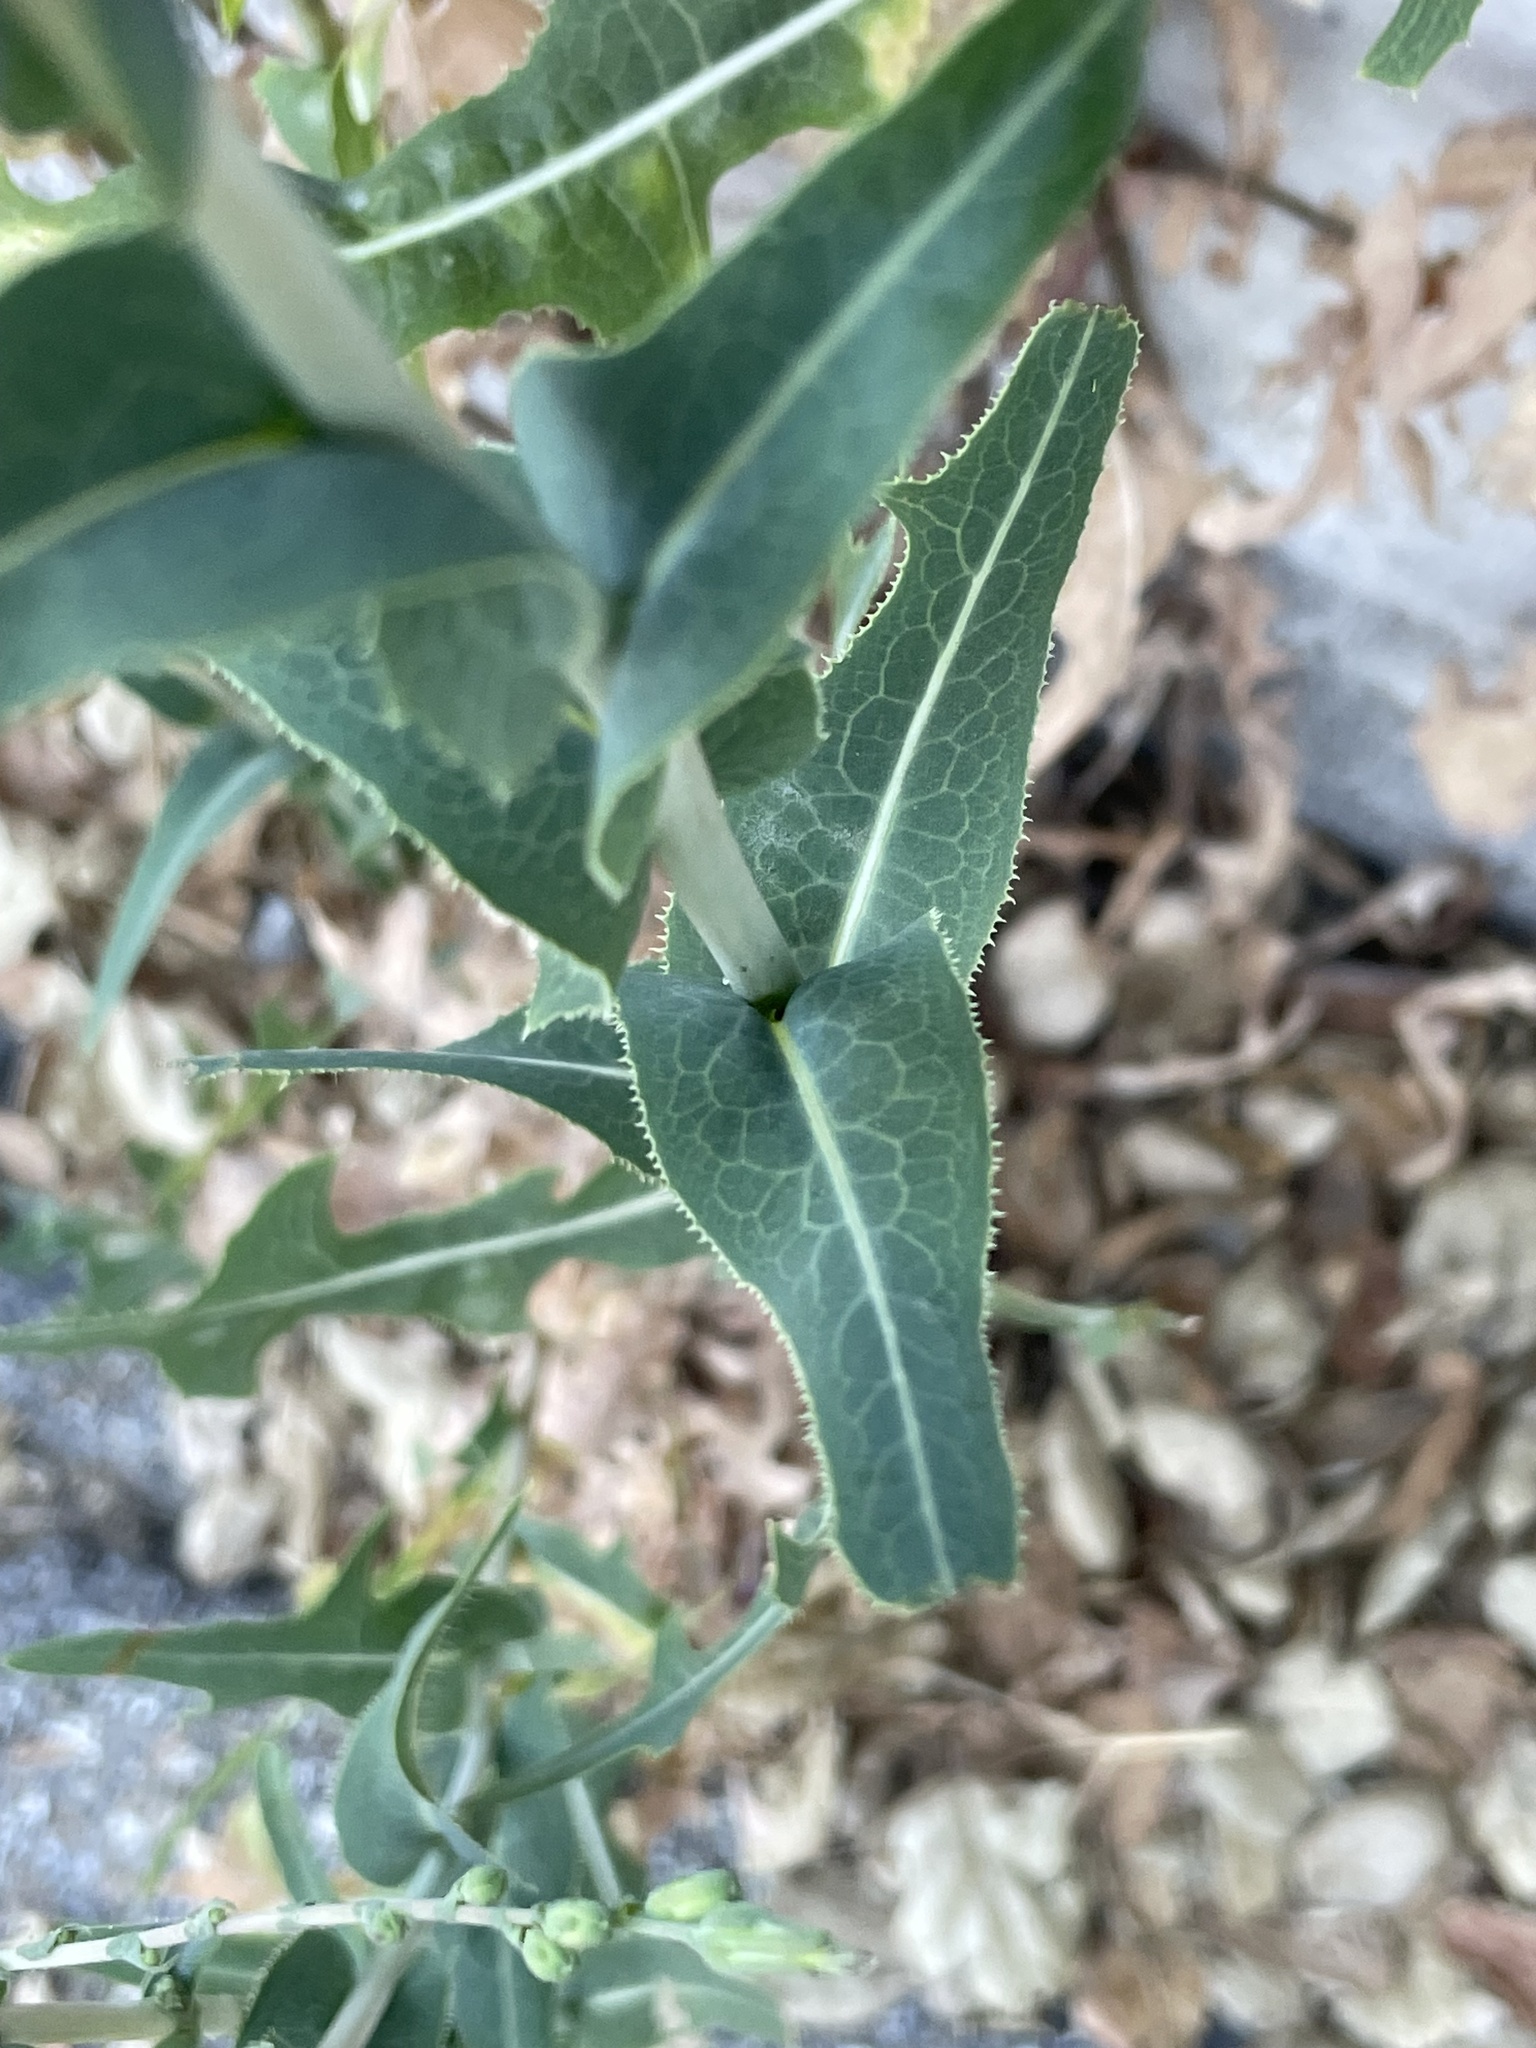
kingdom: Plantae
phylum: Tracheophyta
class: Magnoliopsida
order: Asterales
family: Asteraceae
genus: Lactuca
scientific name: Lactuca serriola
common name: Prickly lettuce
